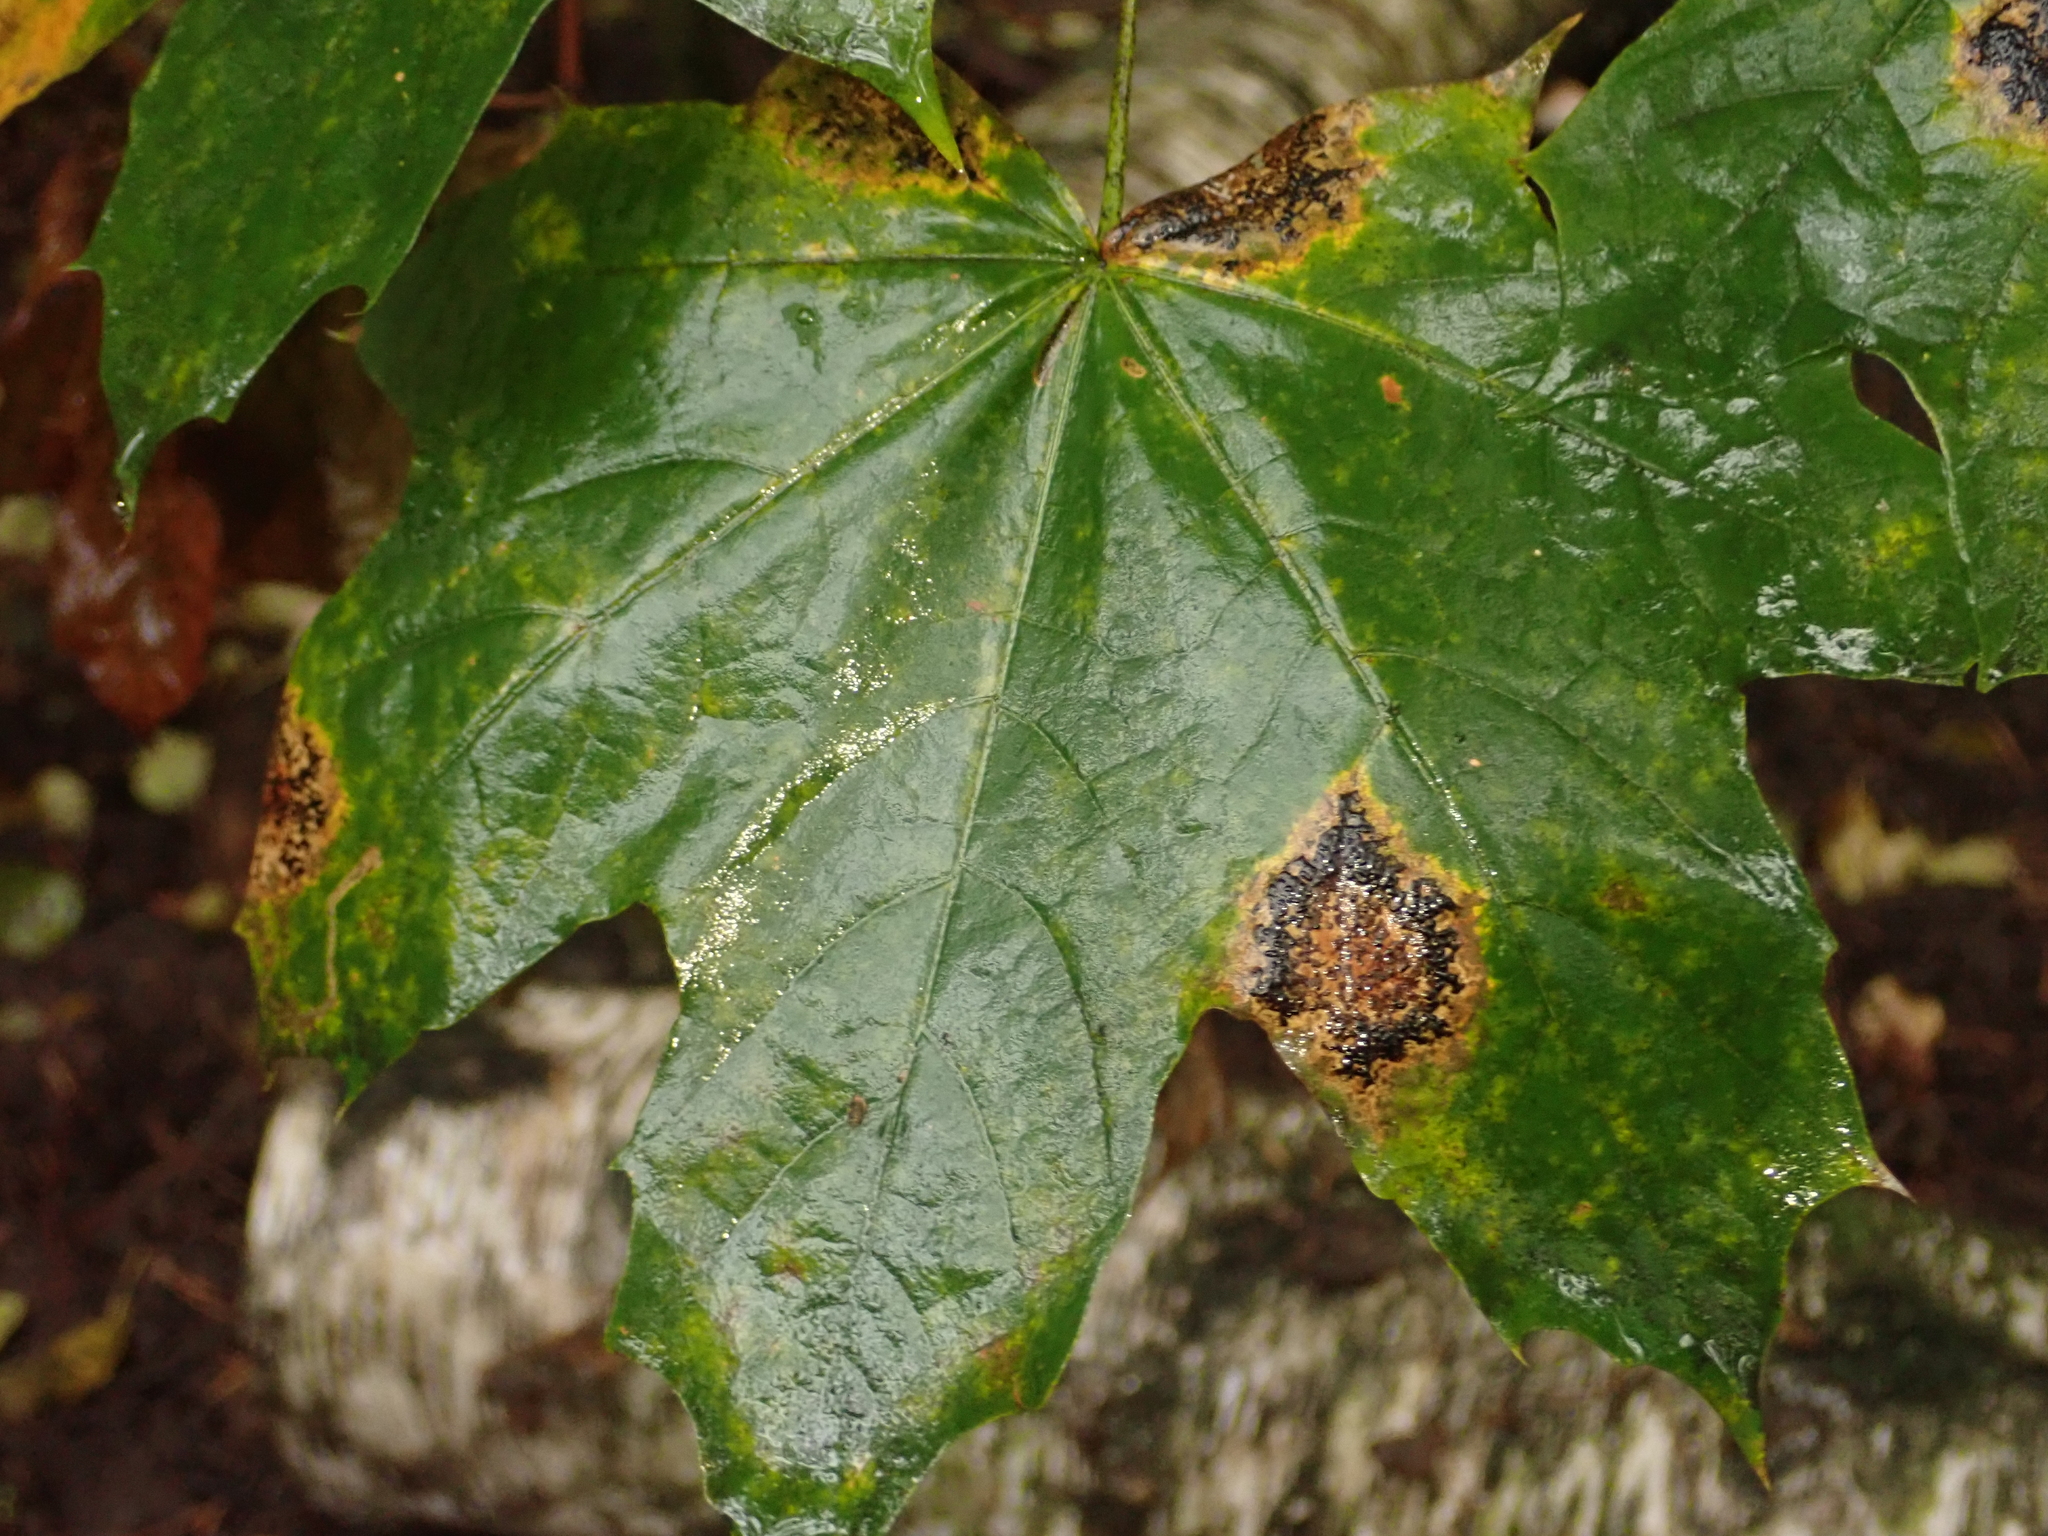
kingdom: Plantae
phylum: Tracheophyta
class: Magnoliopsida
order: Sapindales
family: Sapindaceae
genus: Acer
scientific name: Acer platanoides
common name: Norway maple
